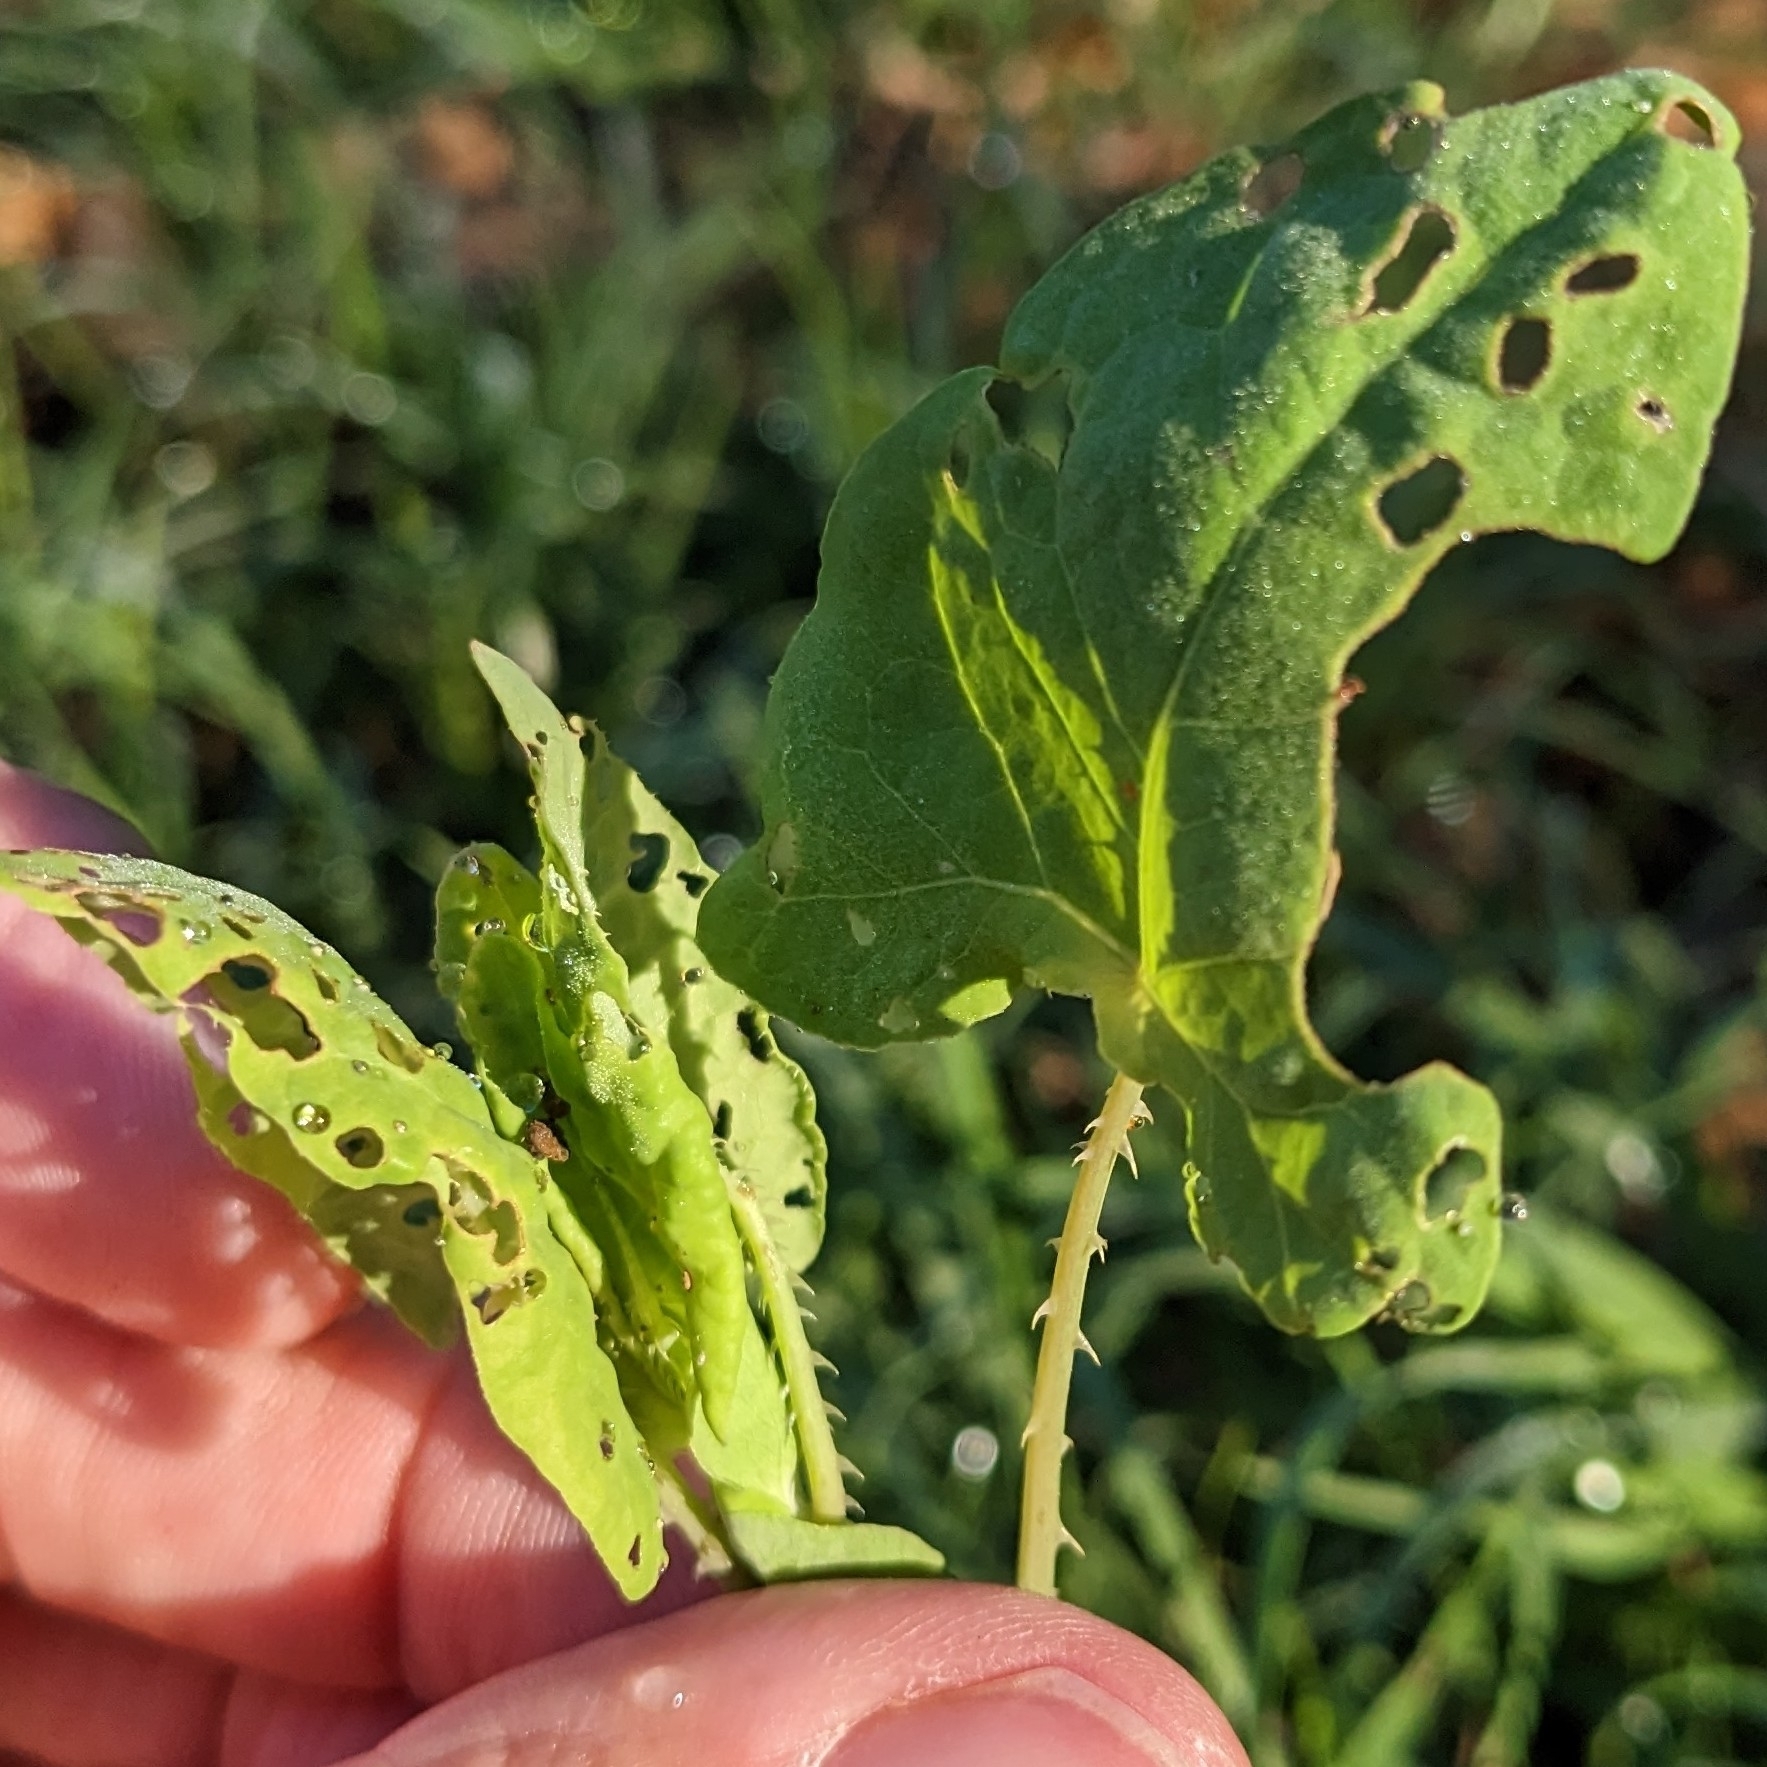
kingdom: Animalia
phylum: Arthropoda
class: Insecta
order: Coleoptera
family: Curculionidae
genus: Rhinoncomimus
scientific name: Rhinoncomimus latipes
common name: Chinese weevil
